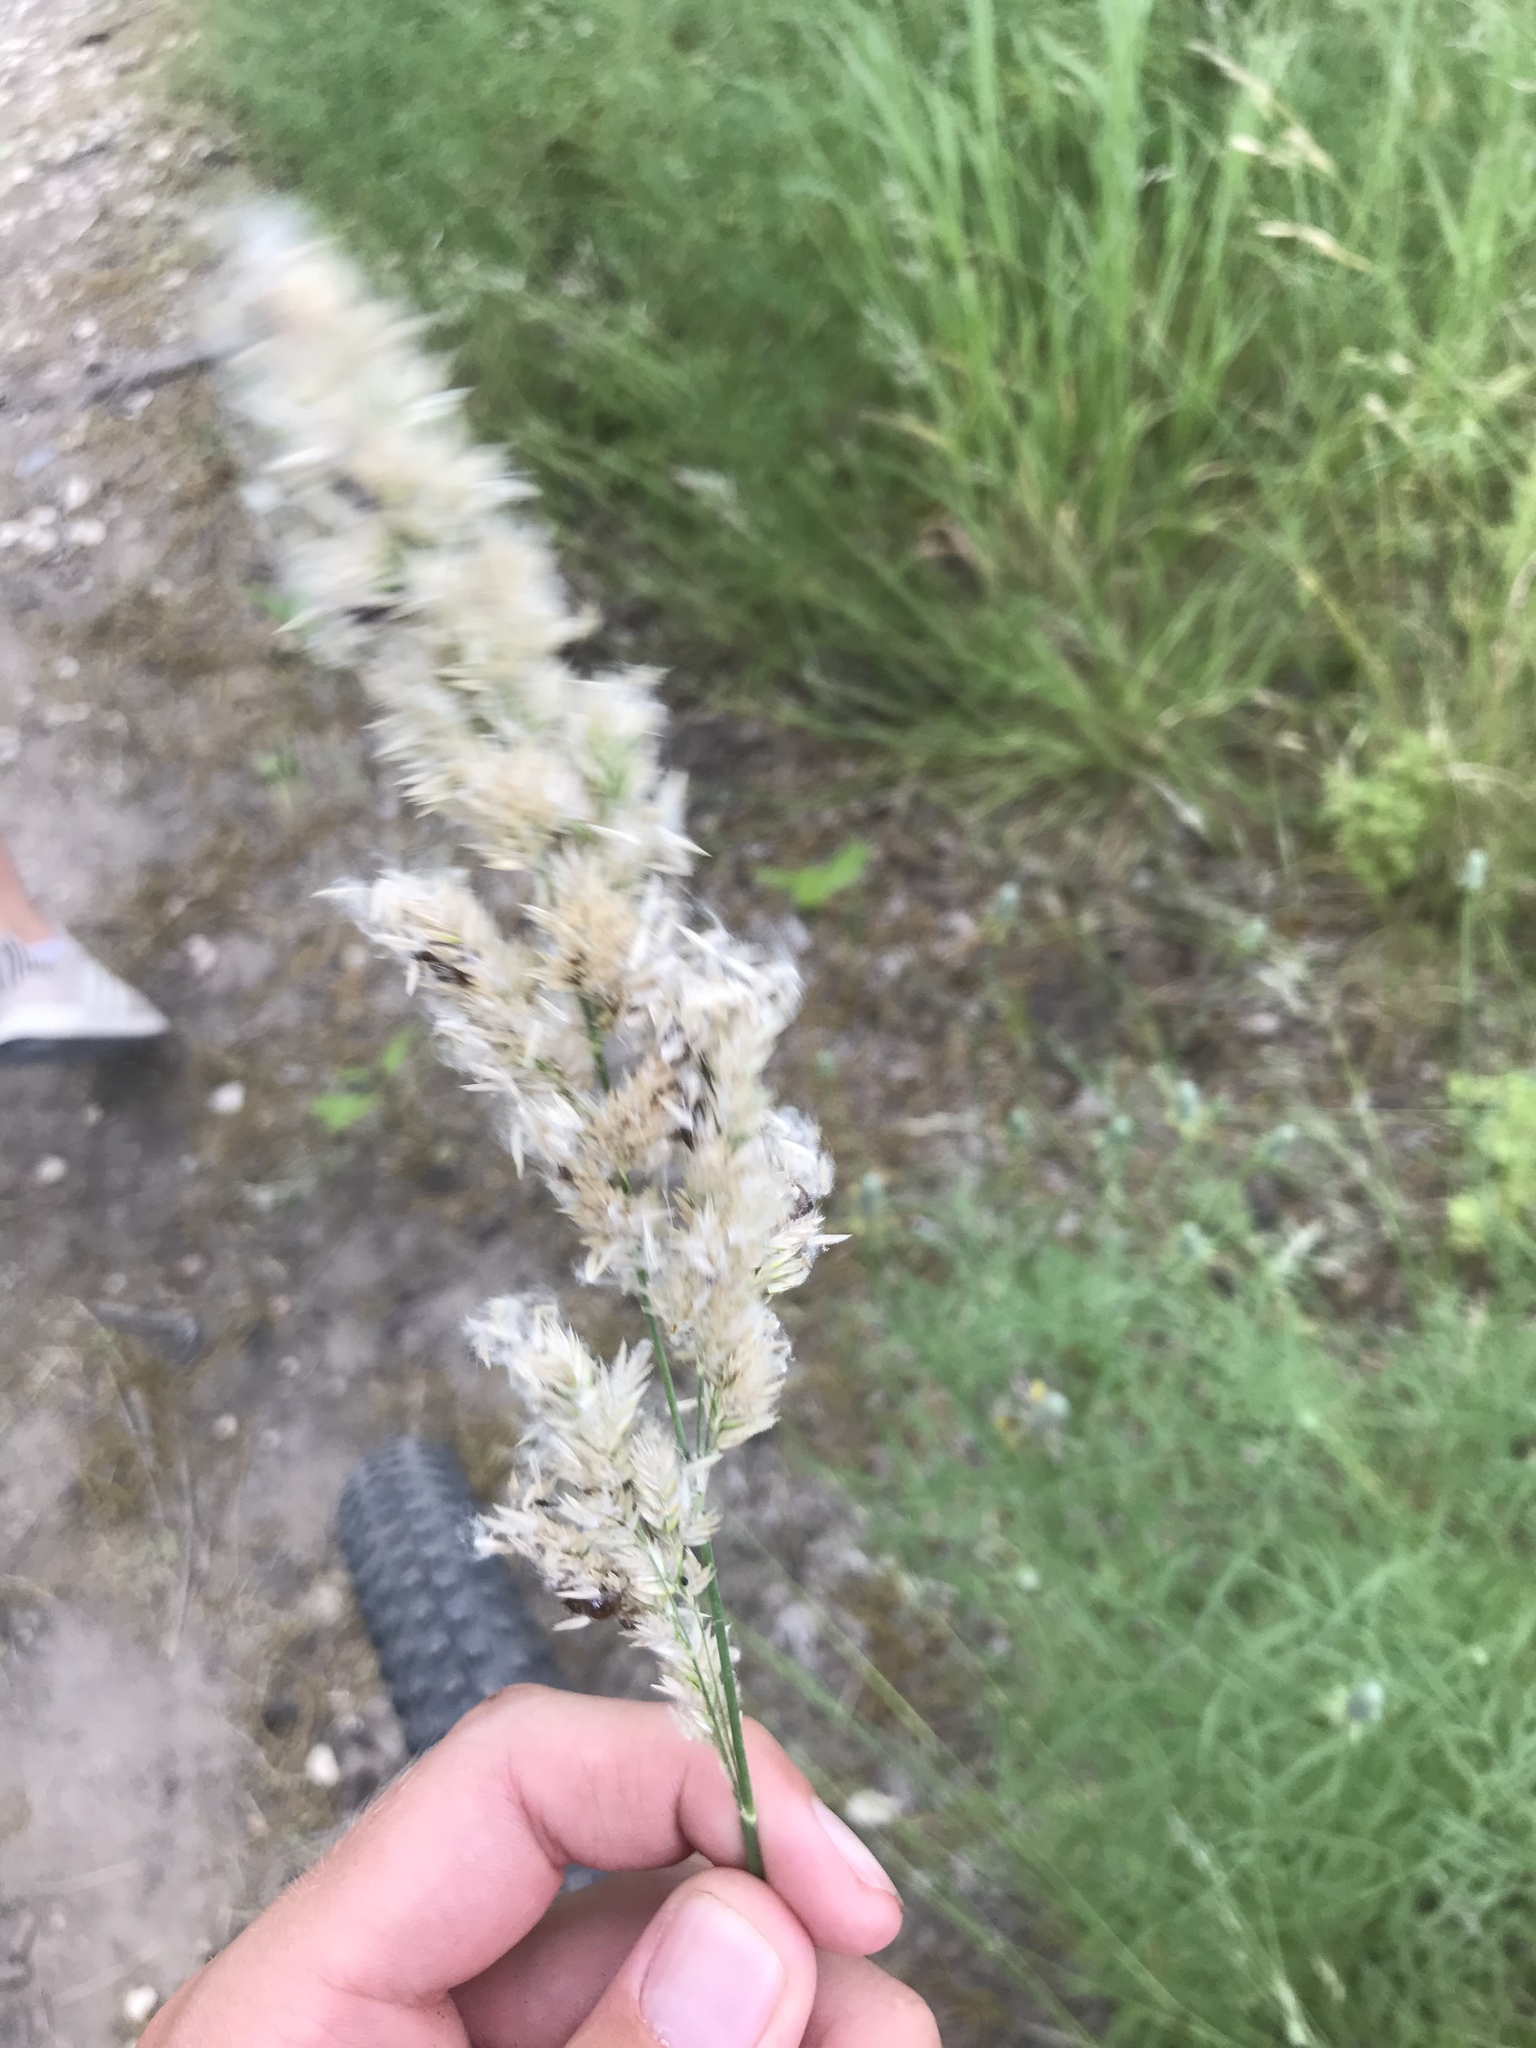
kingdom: Plantae
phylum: Tracheophyta
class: Liliopsida
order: Poales
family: Poaceae
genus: Poa
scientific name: Poa arachnifera
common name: Texas bluegrass
